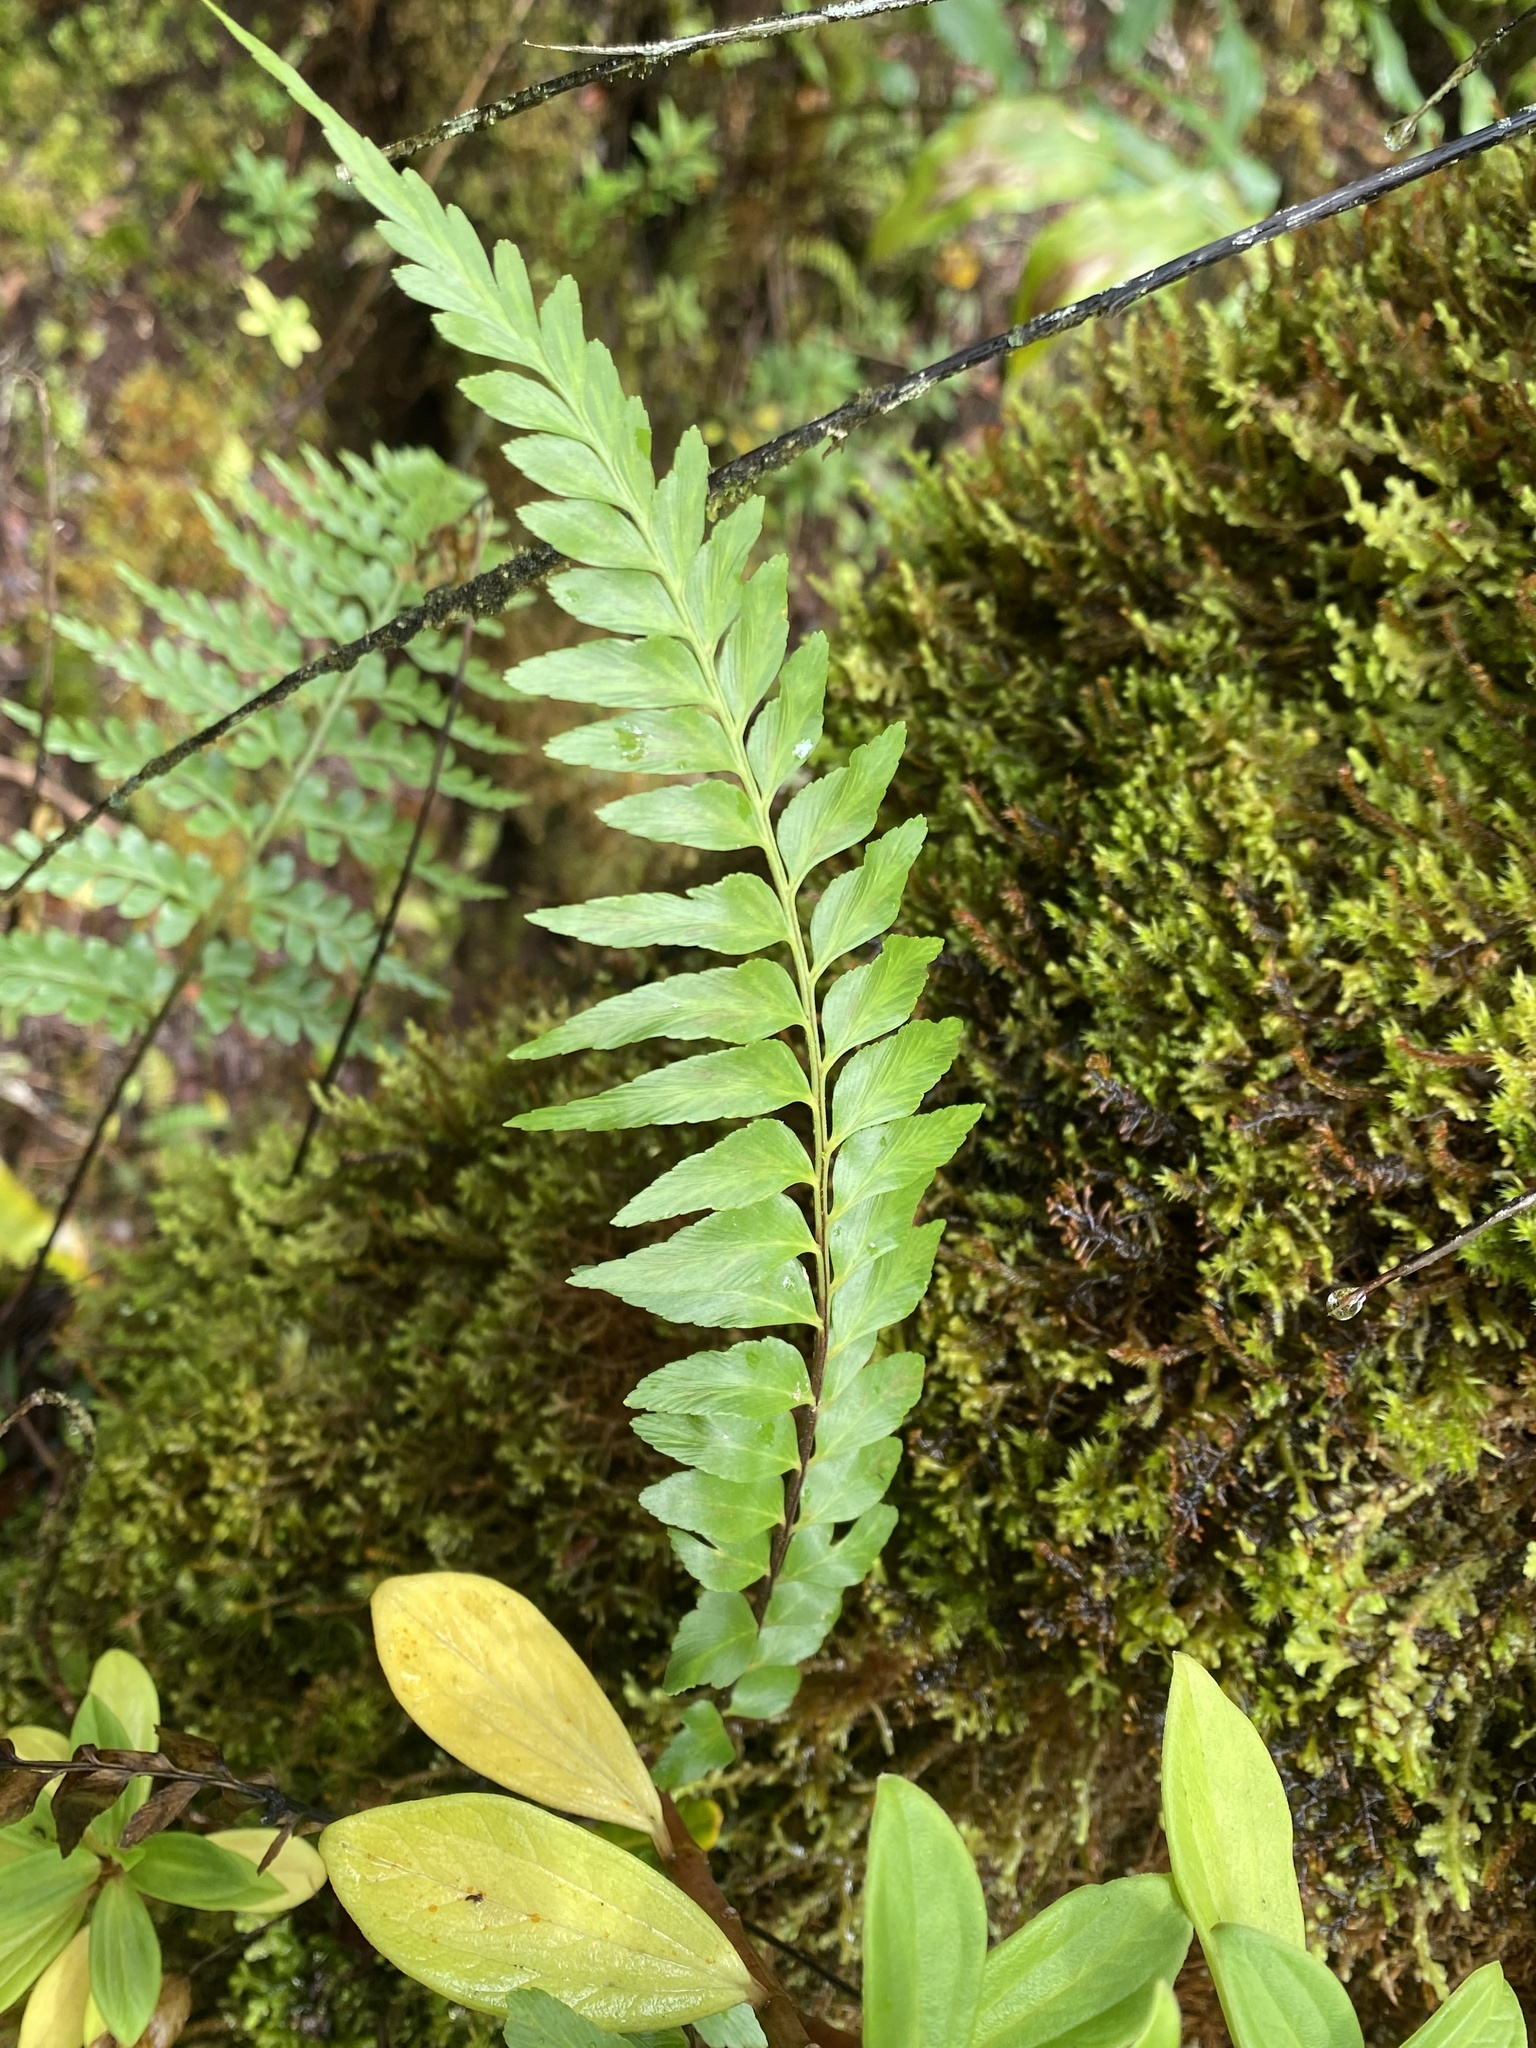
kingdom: Plantae
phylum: Tracheophyta
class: Polypodiopsida
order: Polypodiales
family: Aspleniaceae
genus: Asplenium
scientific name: Asplenium polyodon
